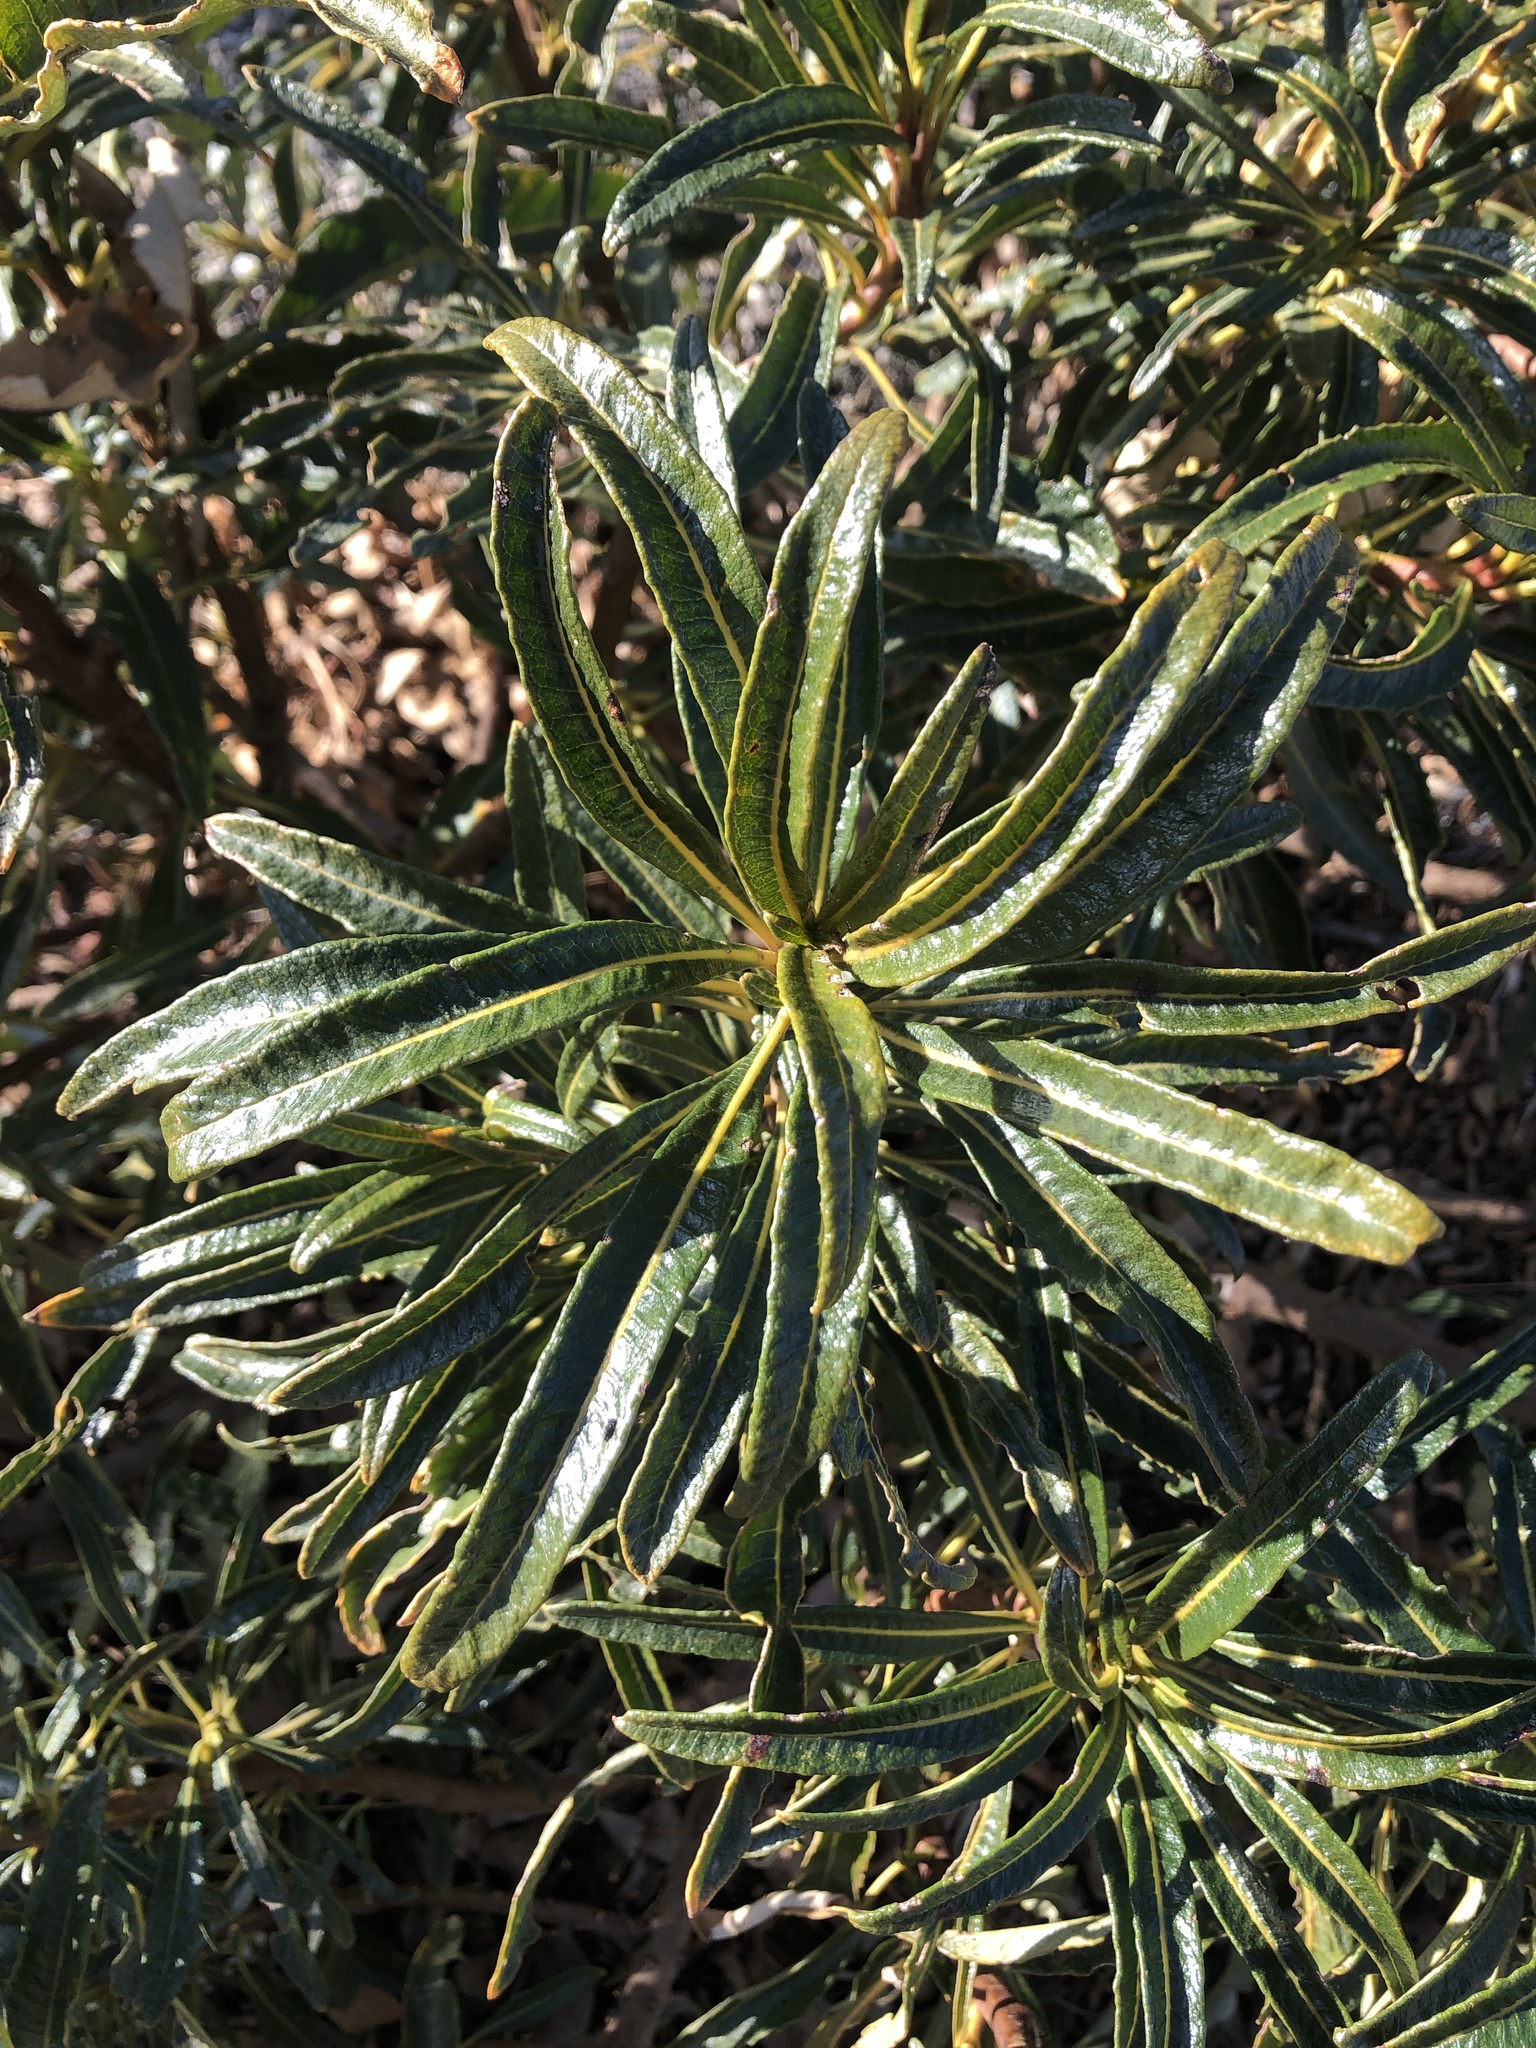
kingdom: Plantae
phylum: Tracheophyta
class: Magnoliopsida
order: Boraginales
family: Namaceae
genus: Eriodictyon
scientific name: Eriodictyon trichocalyx
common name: Hairy yerba-santa
